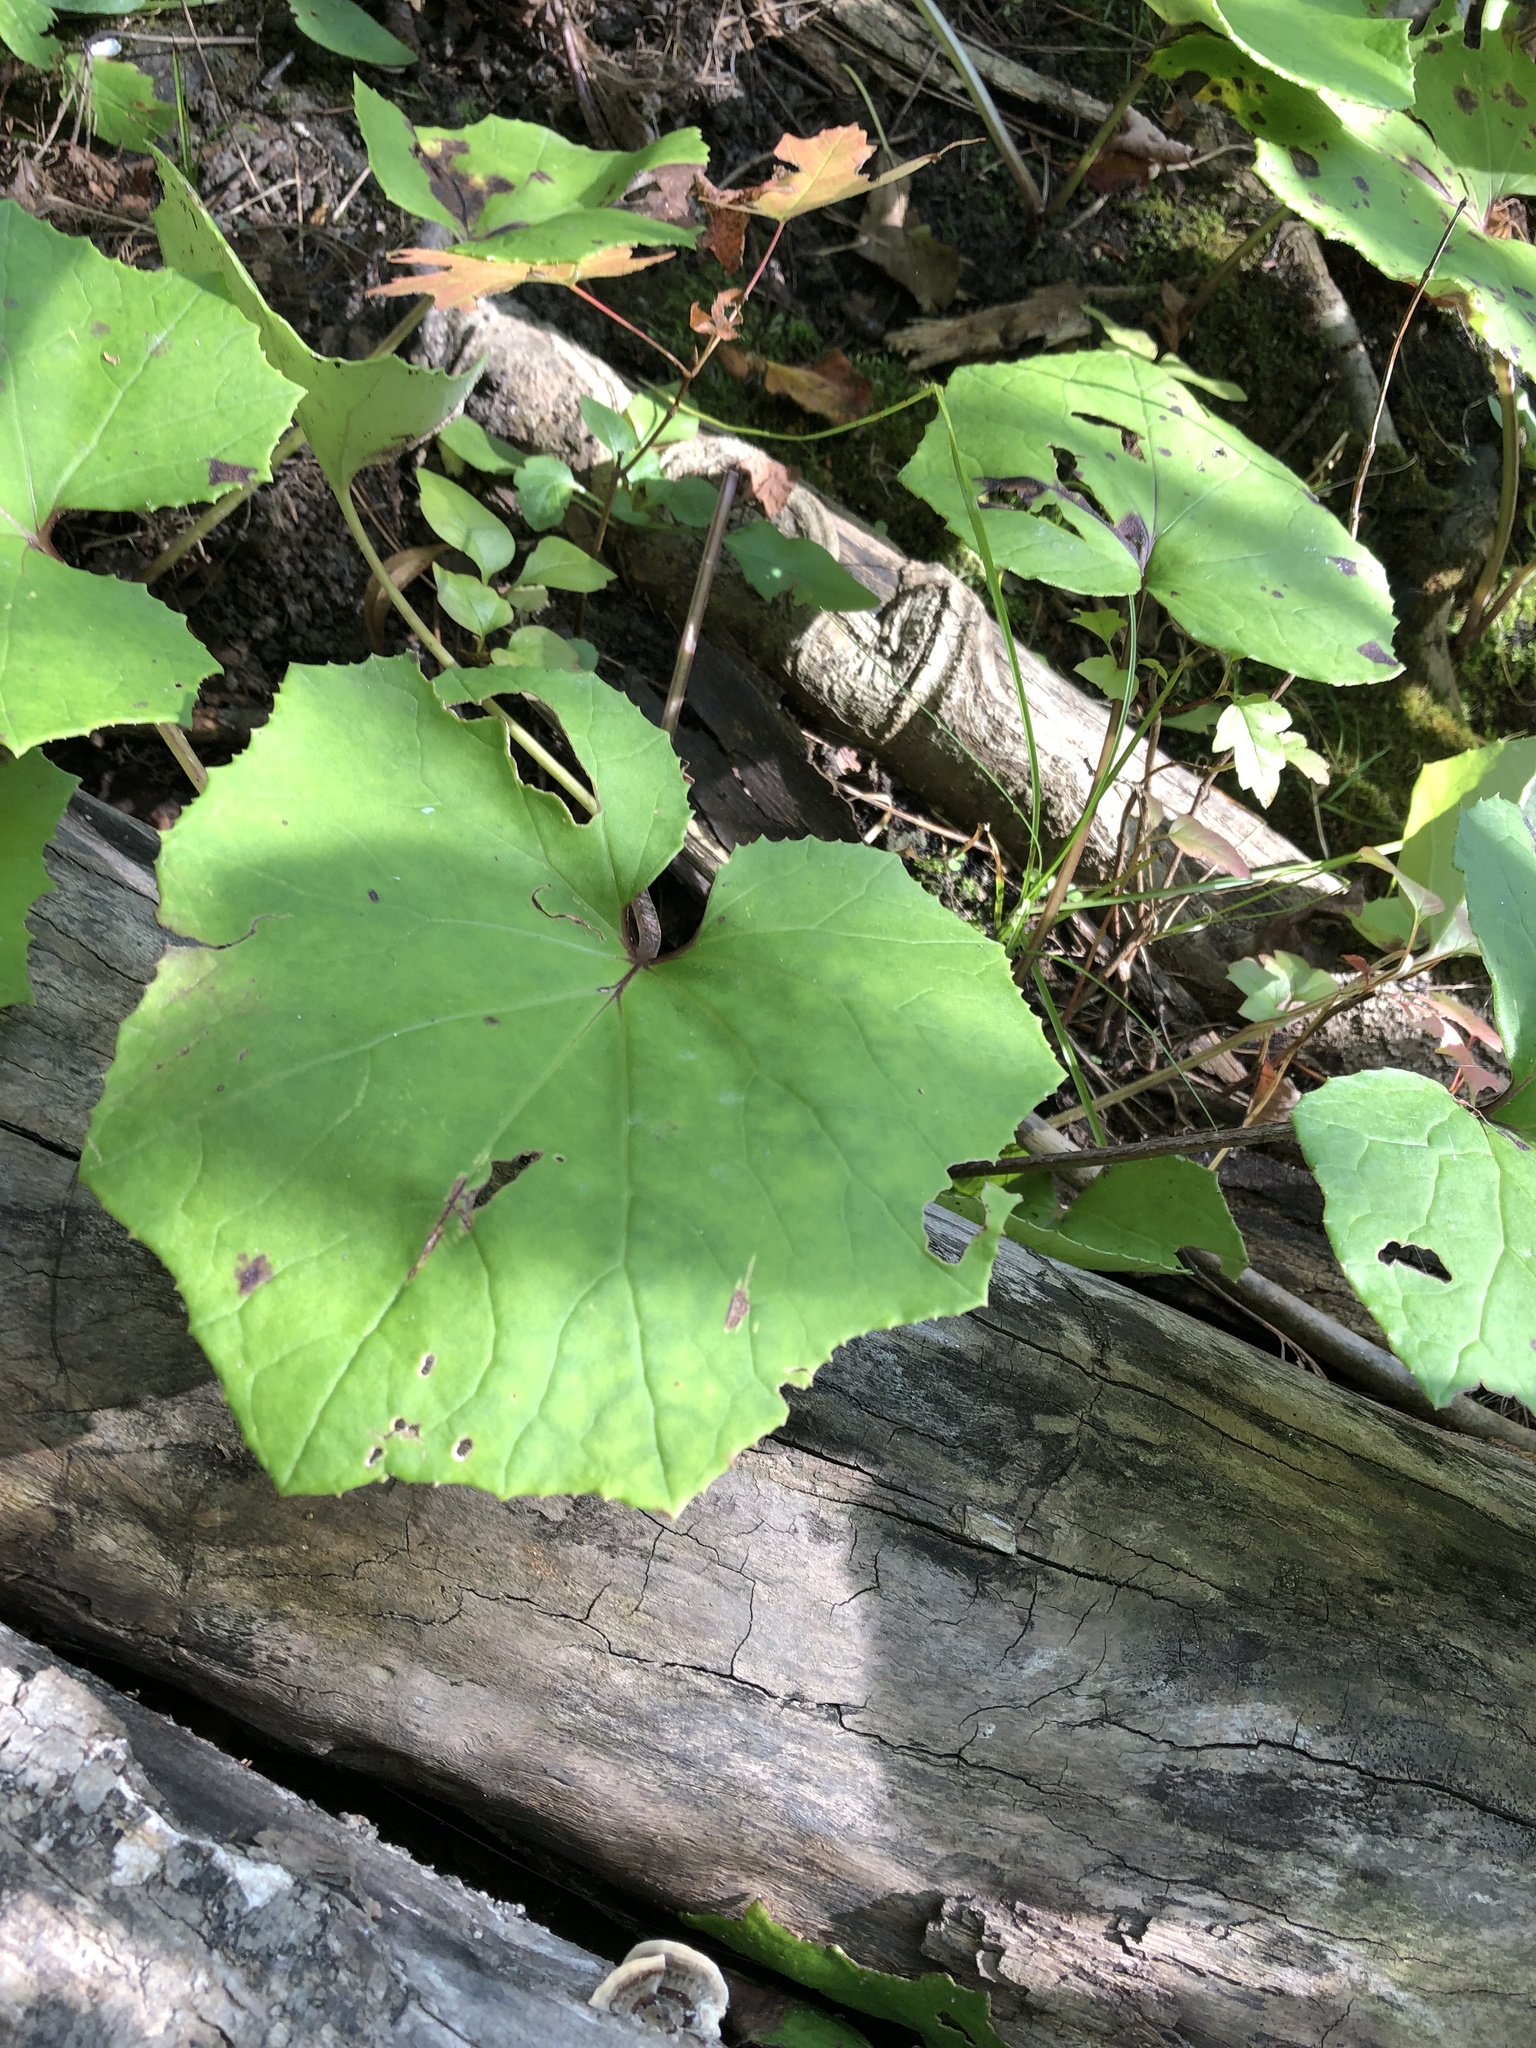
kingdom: Plantae
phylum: Tracheophyta
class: Magnoliopsida
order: Asterales
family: Asteraceae
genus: Tussilago
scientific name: Tussilago farfara
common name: Coltsfoot
